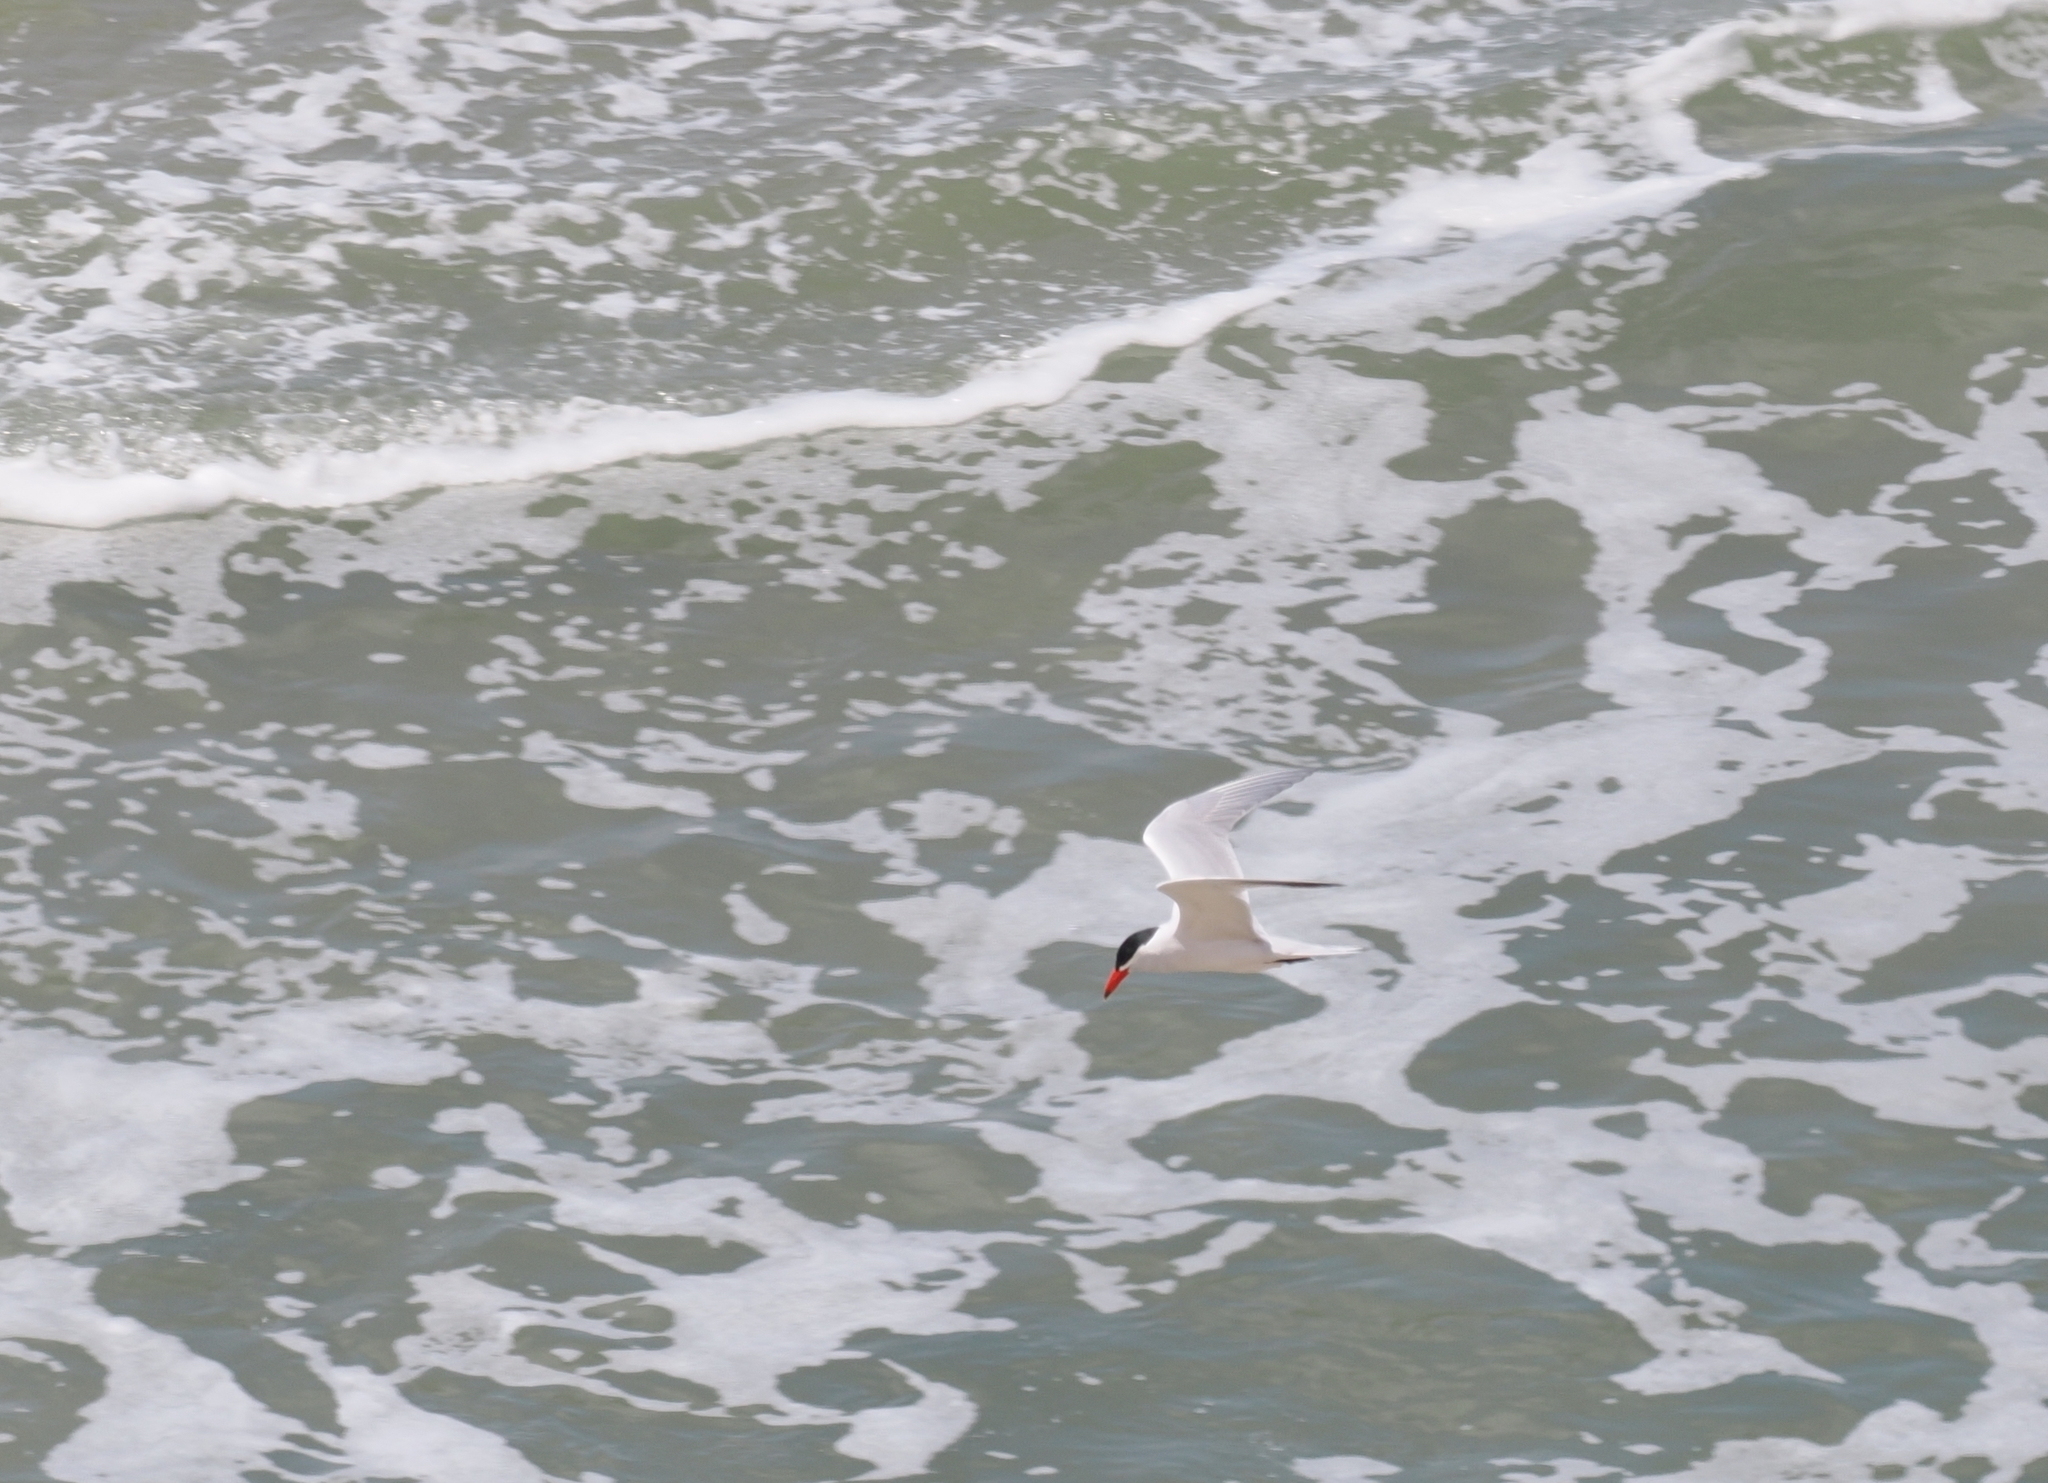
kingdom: Animalia
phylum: Chordata
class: Aves
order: Charadriiformes
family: Laridae
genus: Hydroprogne
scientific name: Hydroprogne caspia
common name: Caspian tern
